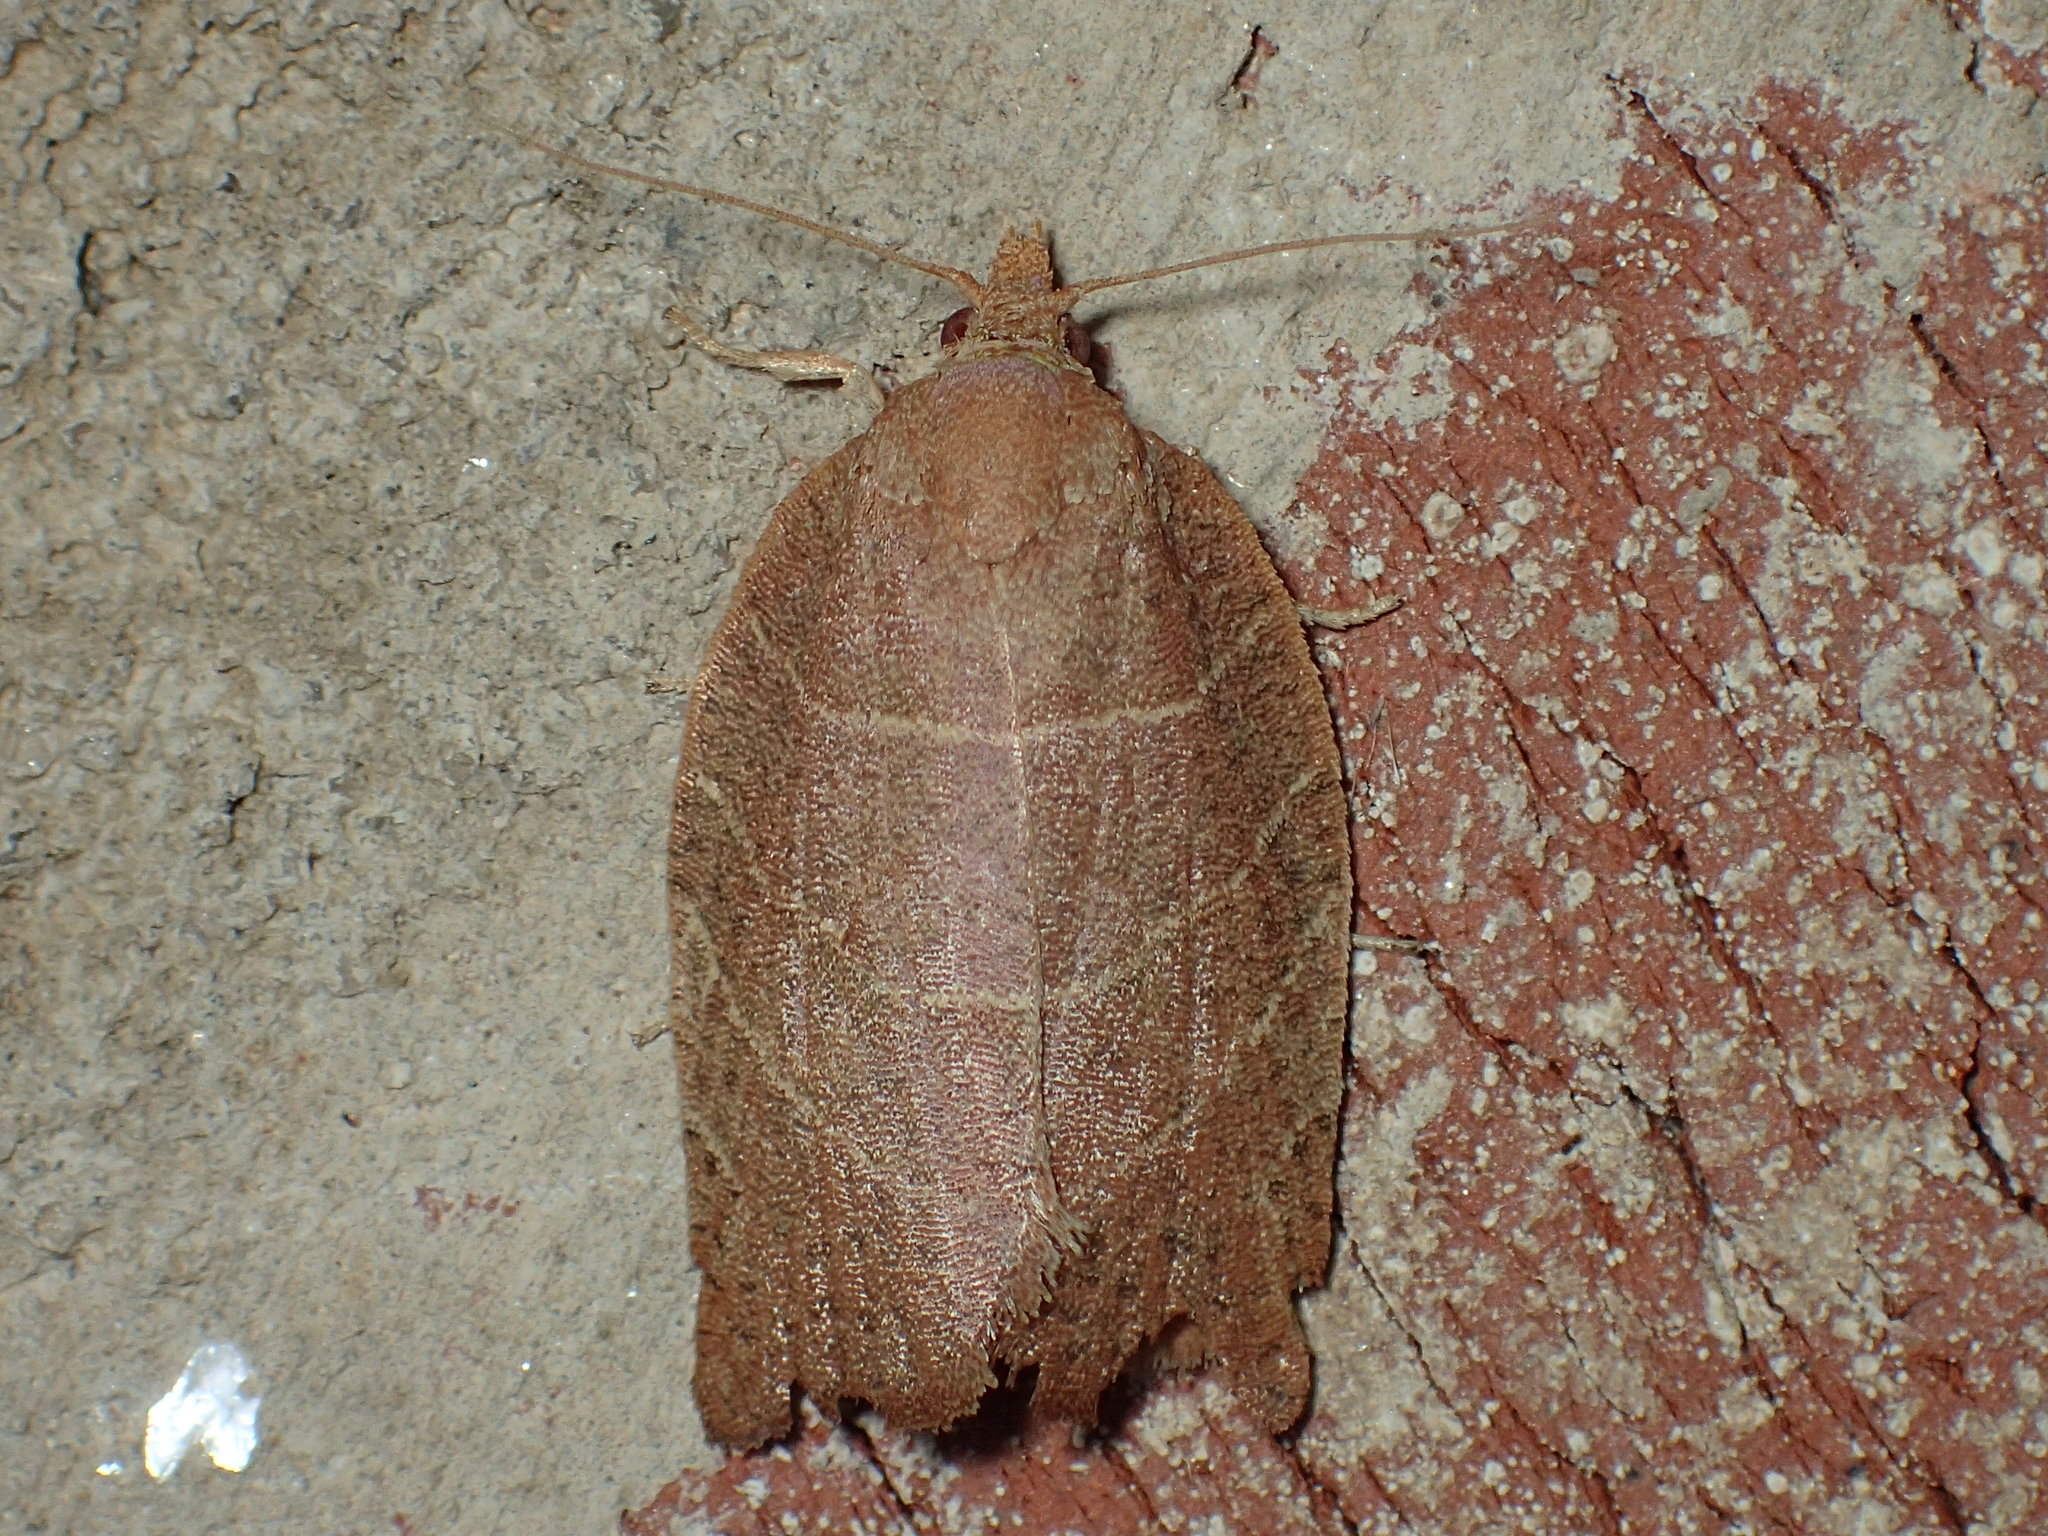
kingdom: Animalia
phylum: Arthropoda
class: Insecta
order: Lepidoptera
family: Tortricidae
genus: Pandemis
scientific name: Pandemis limitata
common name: Three-lined leafroller moth
